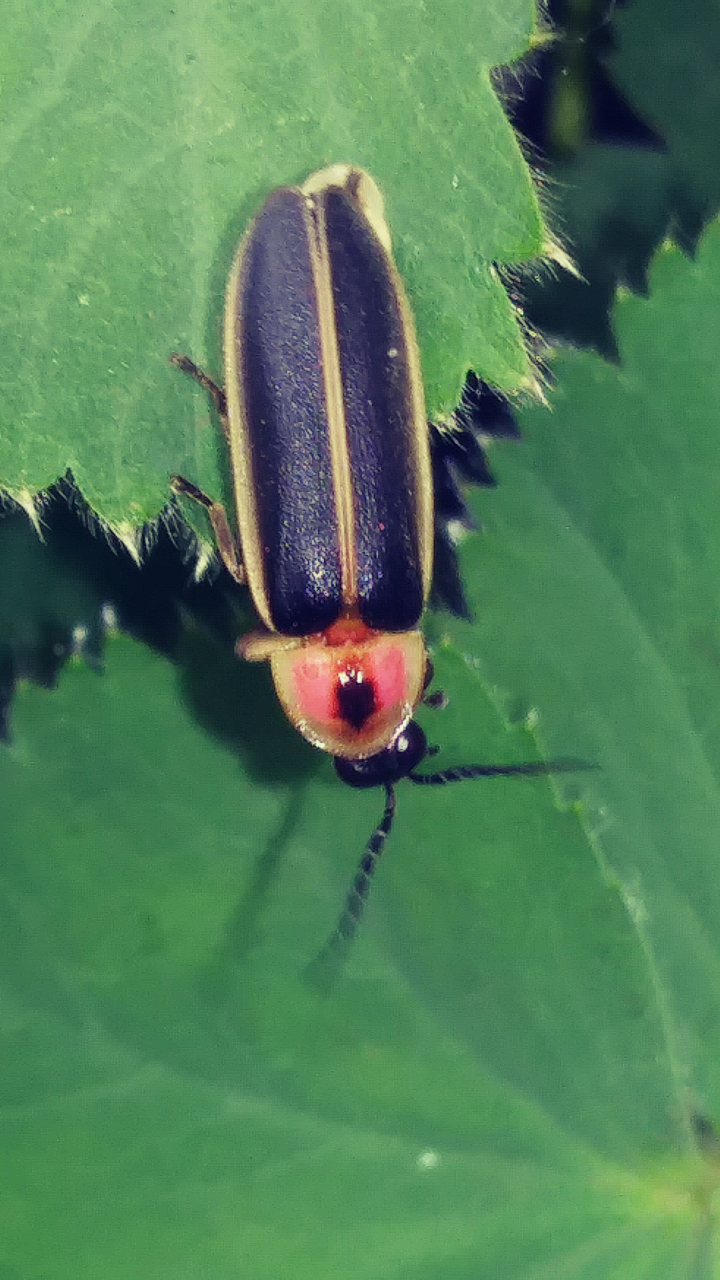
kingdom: Animalia
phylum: Arthropoda
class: Insecta
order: Coleoptera
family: Lampyridae
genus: Photinus
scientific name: Photinus pyralis
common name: Big dipper firefly
